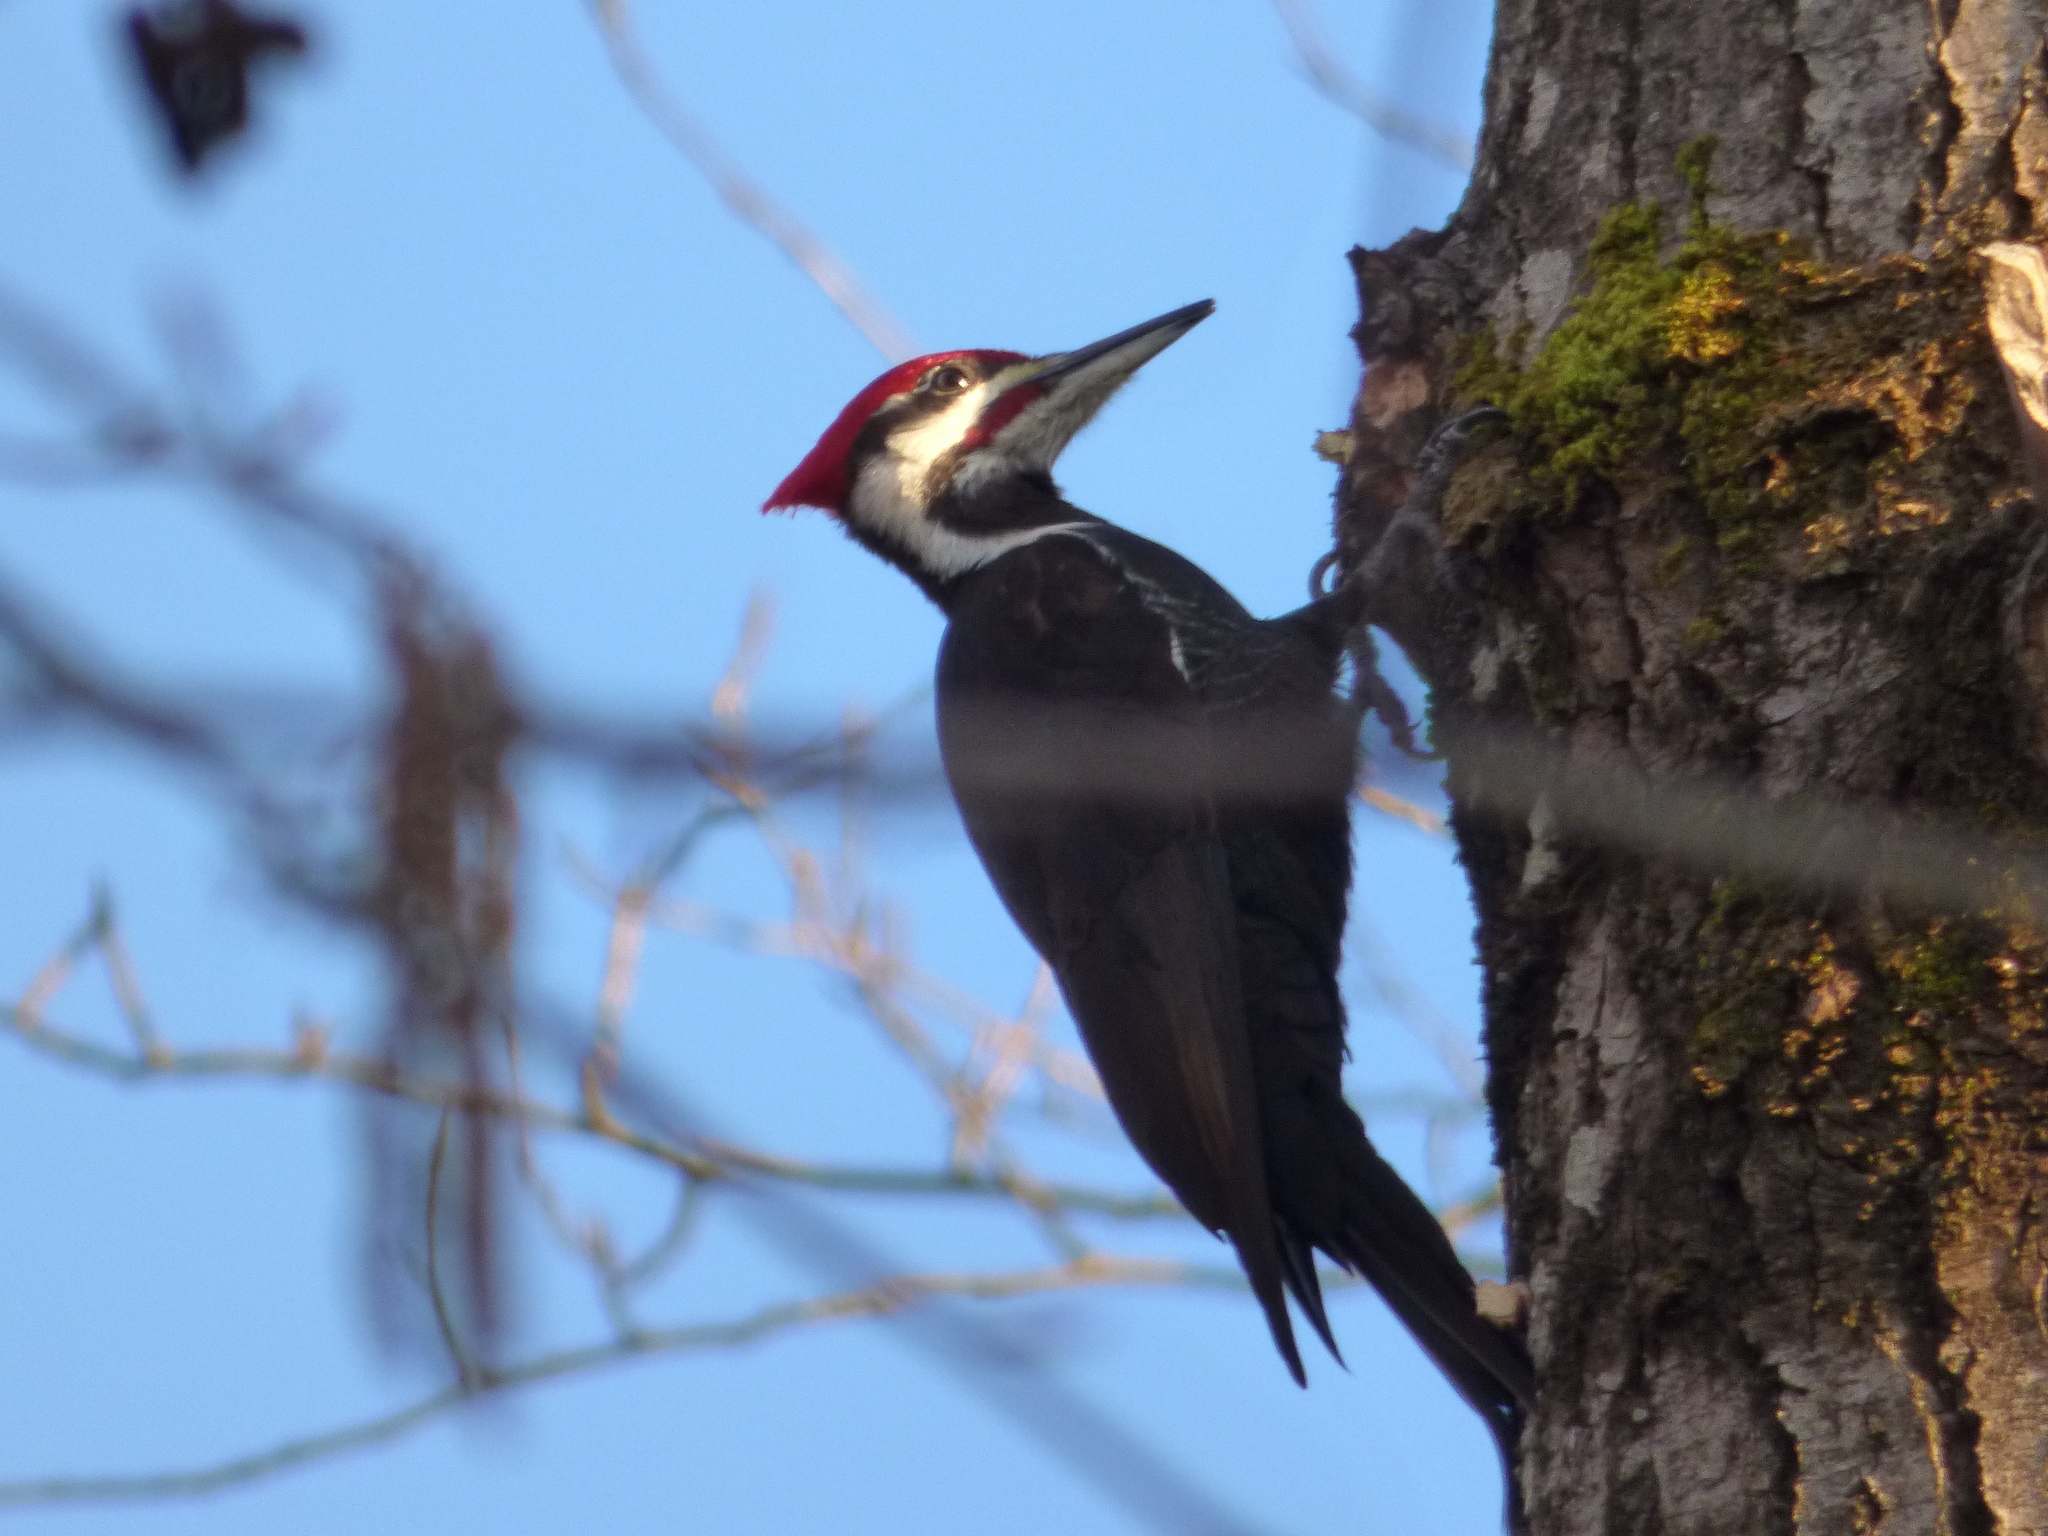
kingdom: Animalia
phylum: Chordata
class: Aves
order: Piciformes
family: Picidae
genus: Dryocopus
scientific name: Dryocopus pileatus
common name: Pileated woodpecker
